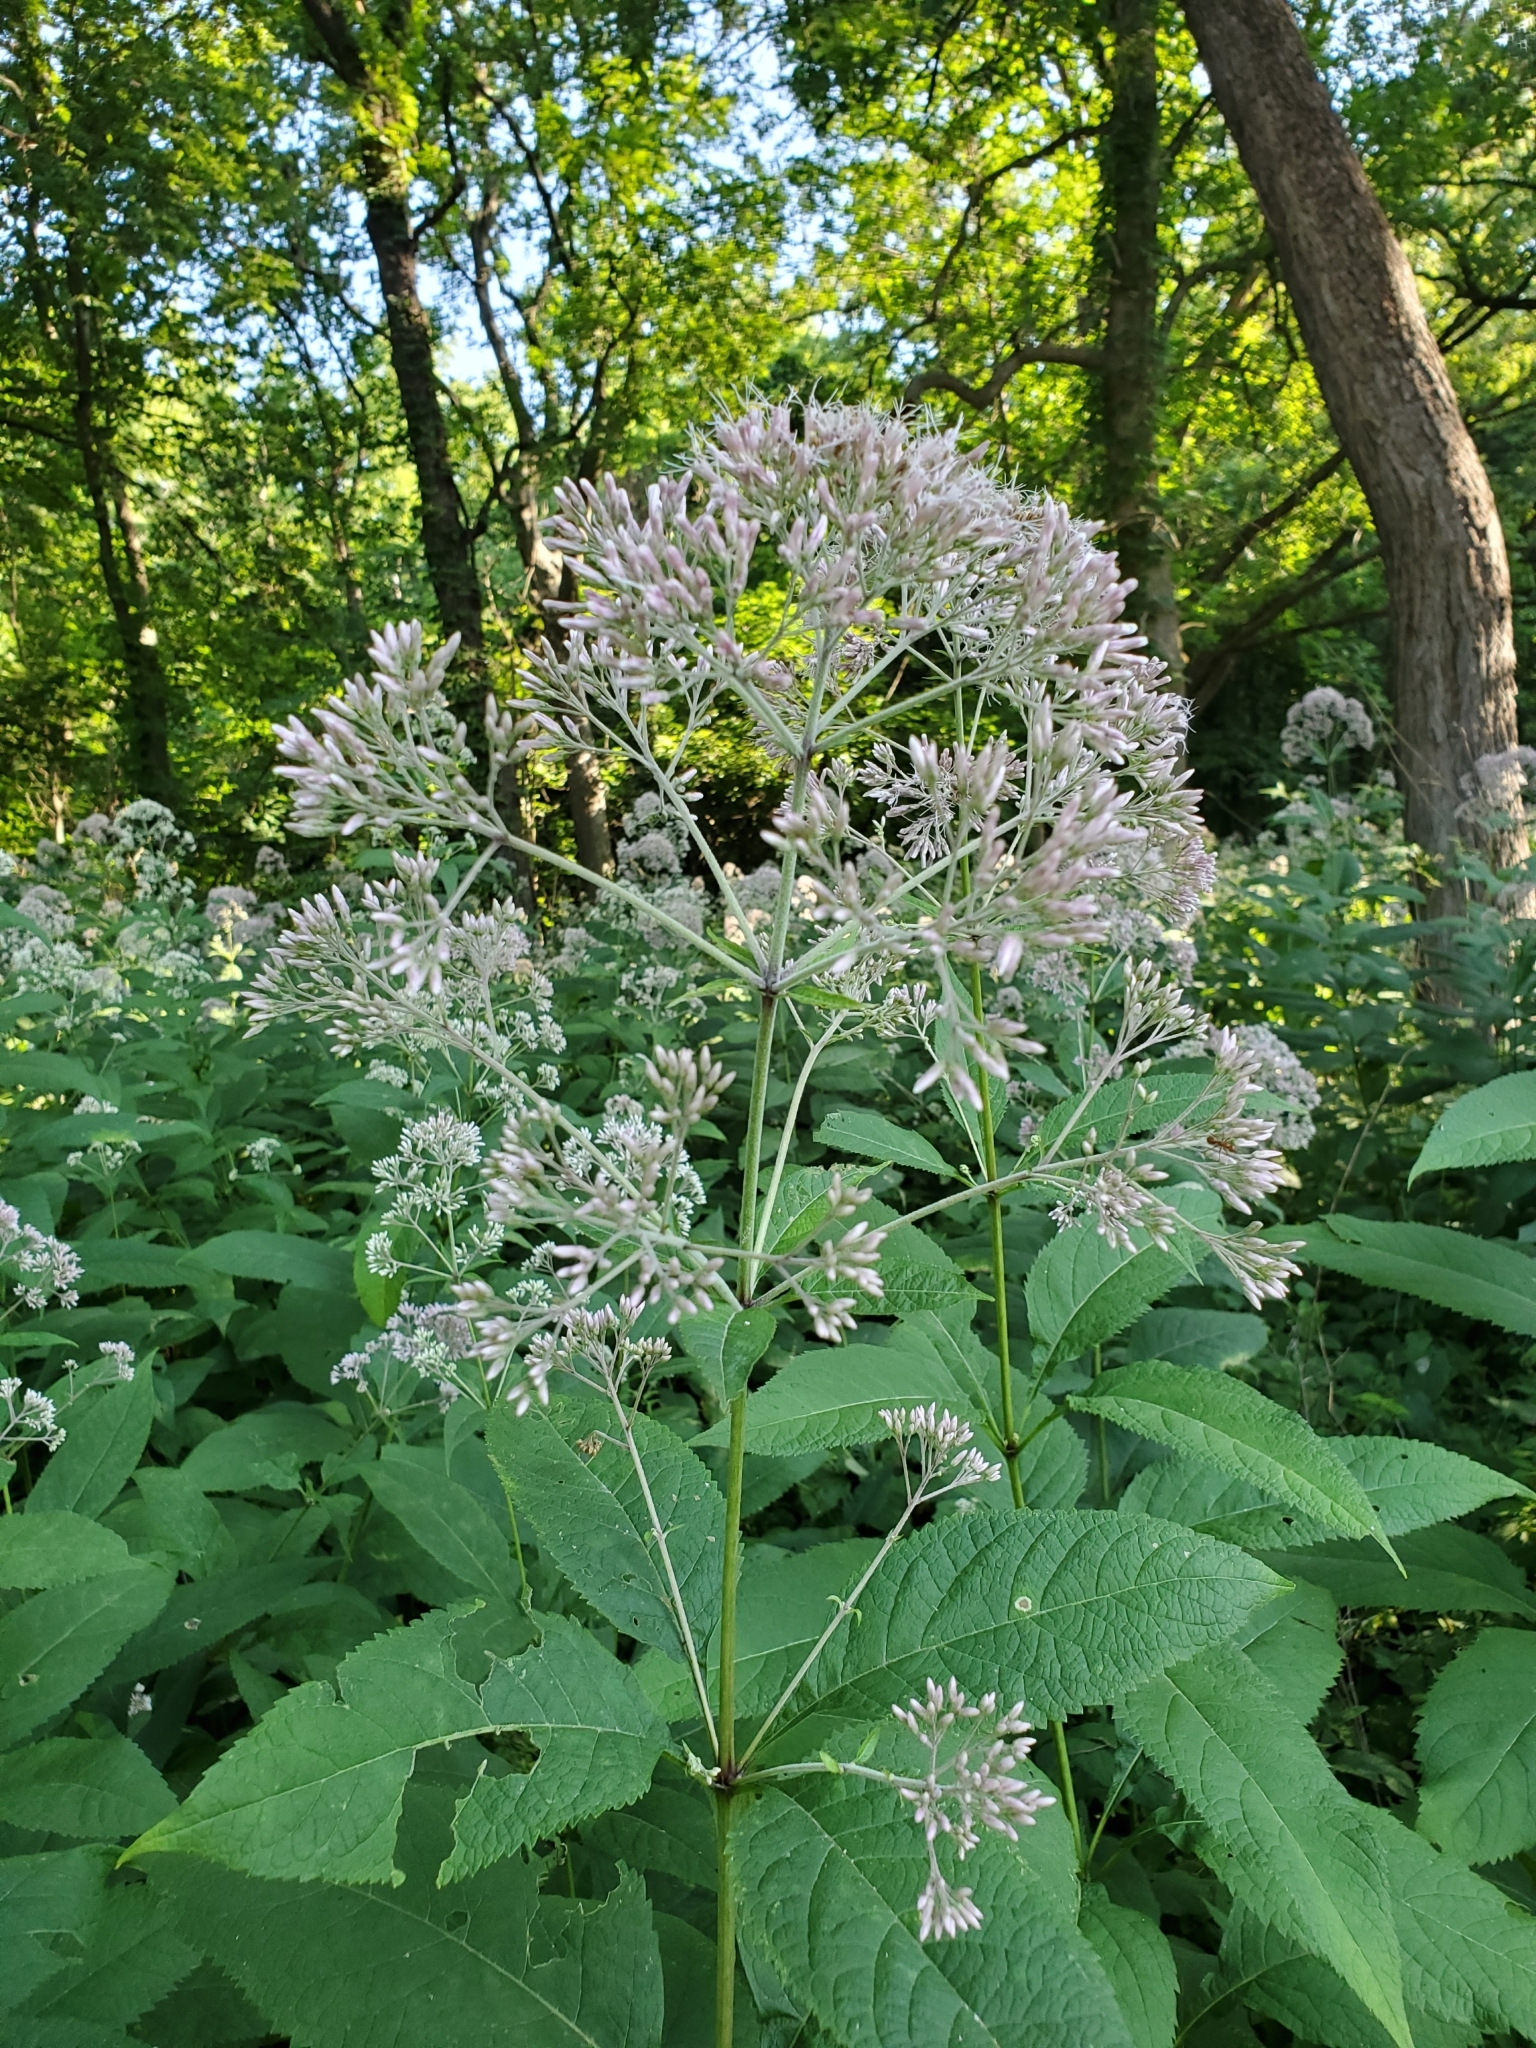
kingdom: Plantae
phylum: Tracheophyta
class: Magnoliopsida
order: Asterales
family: Asteraceae
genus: Eutrochium
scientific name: Eutrochium purpureum
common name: Gravelroot
